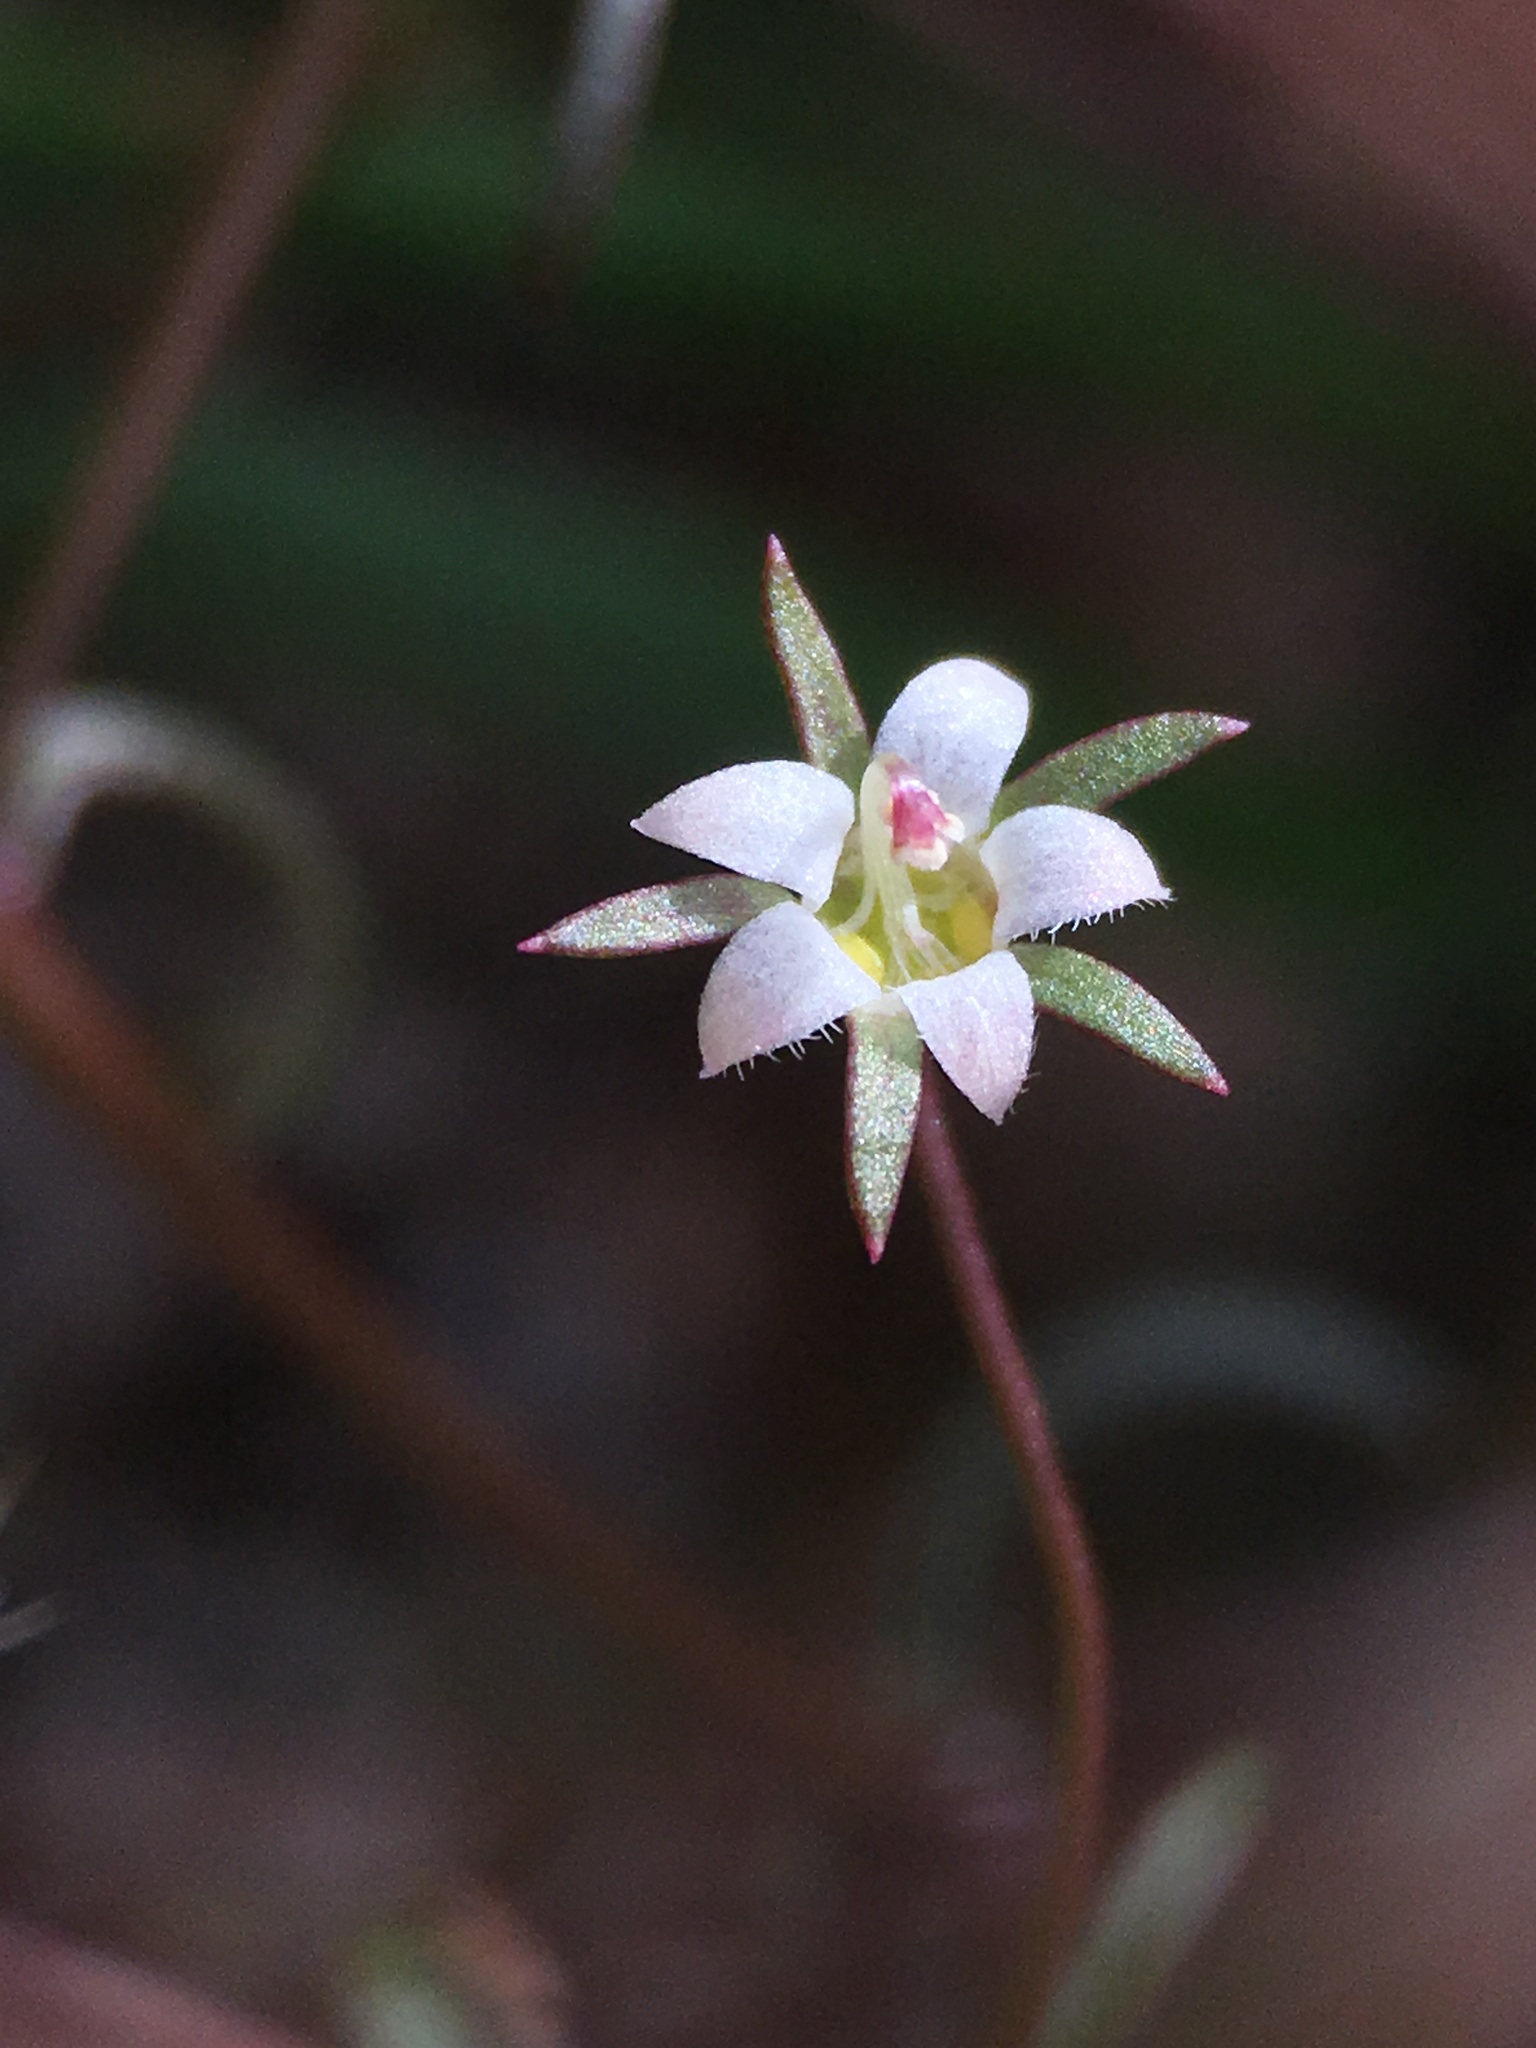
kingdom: Plantae
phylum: Tracheophyta
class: Magnoliopsida
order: Asterales
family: Campanulaceae
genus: Nemacladus
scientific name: Nemacladus glanduliferus
